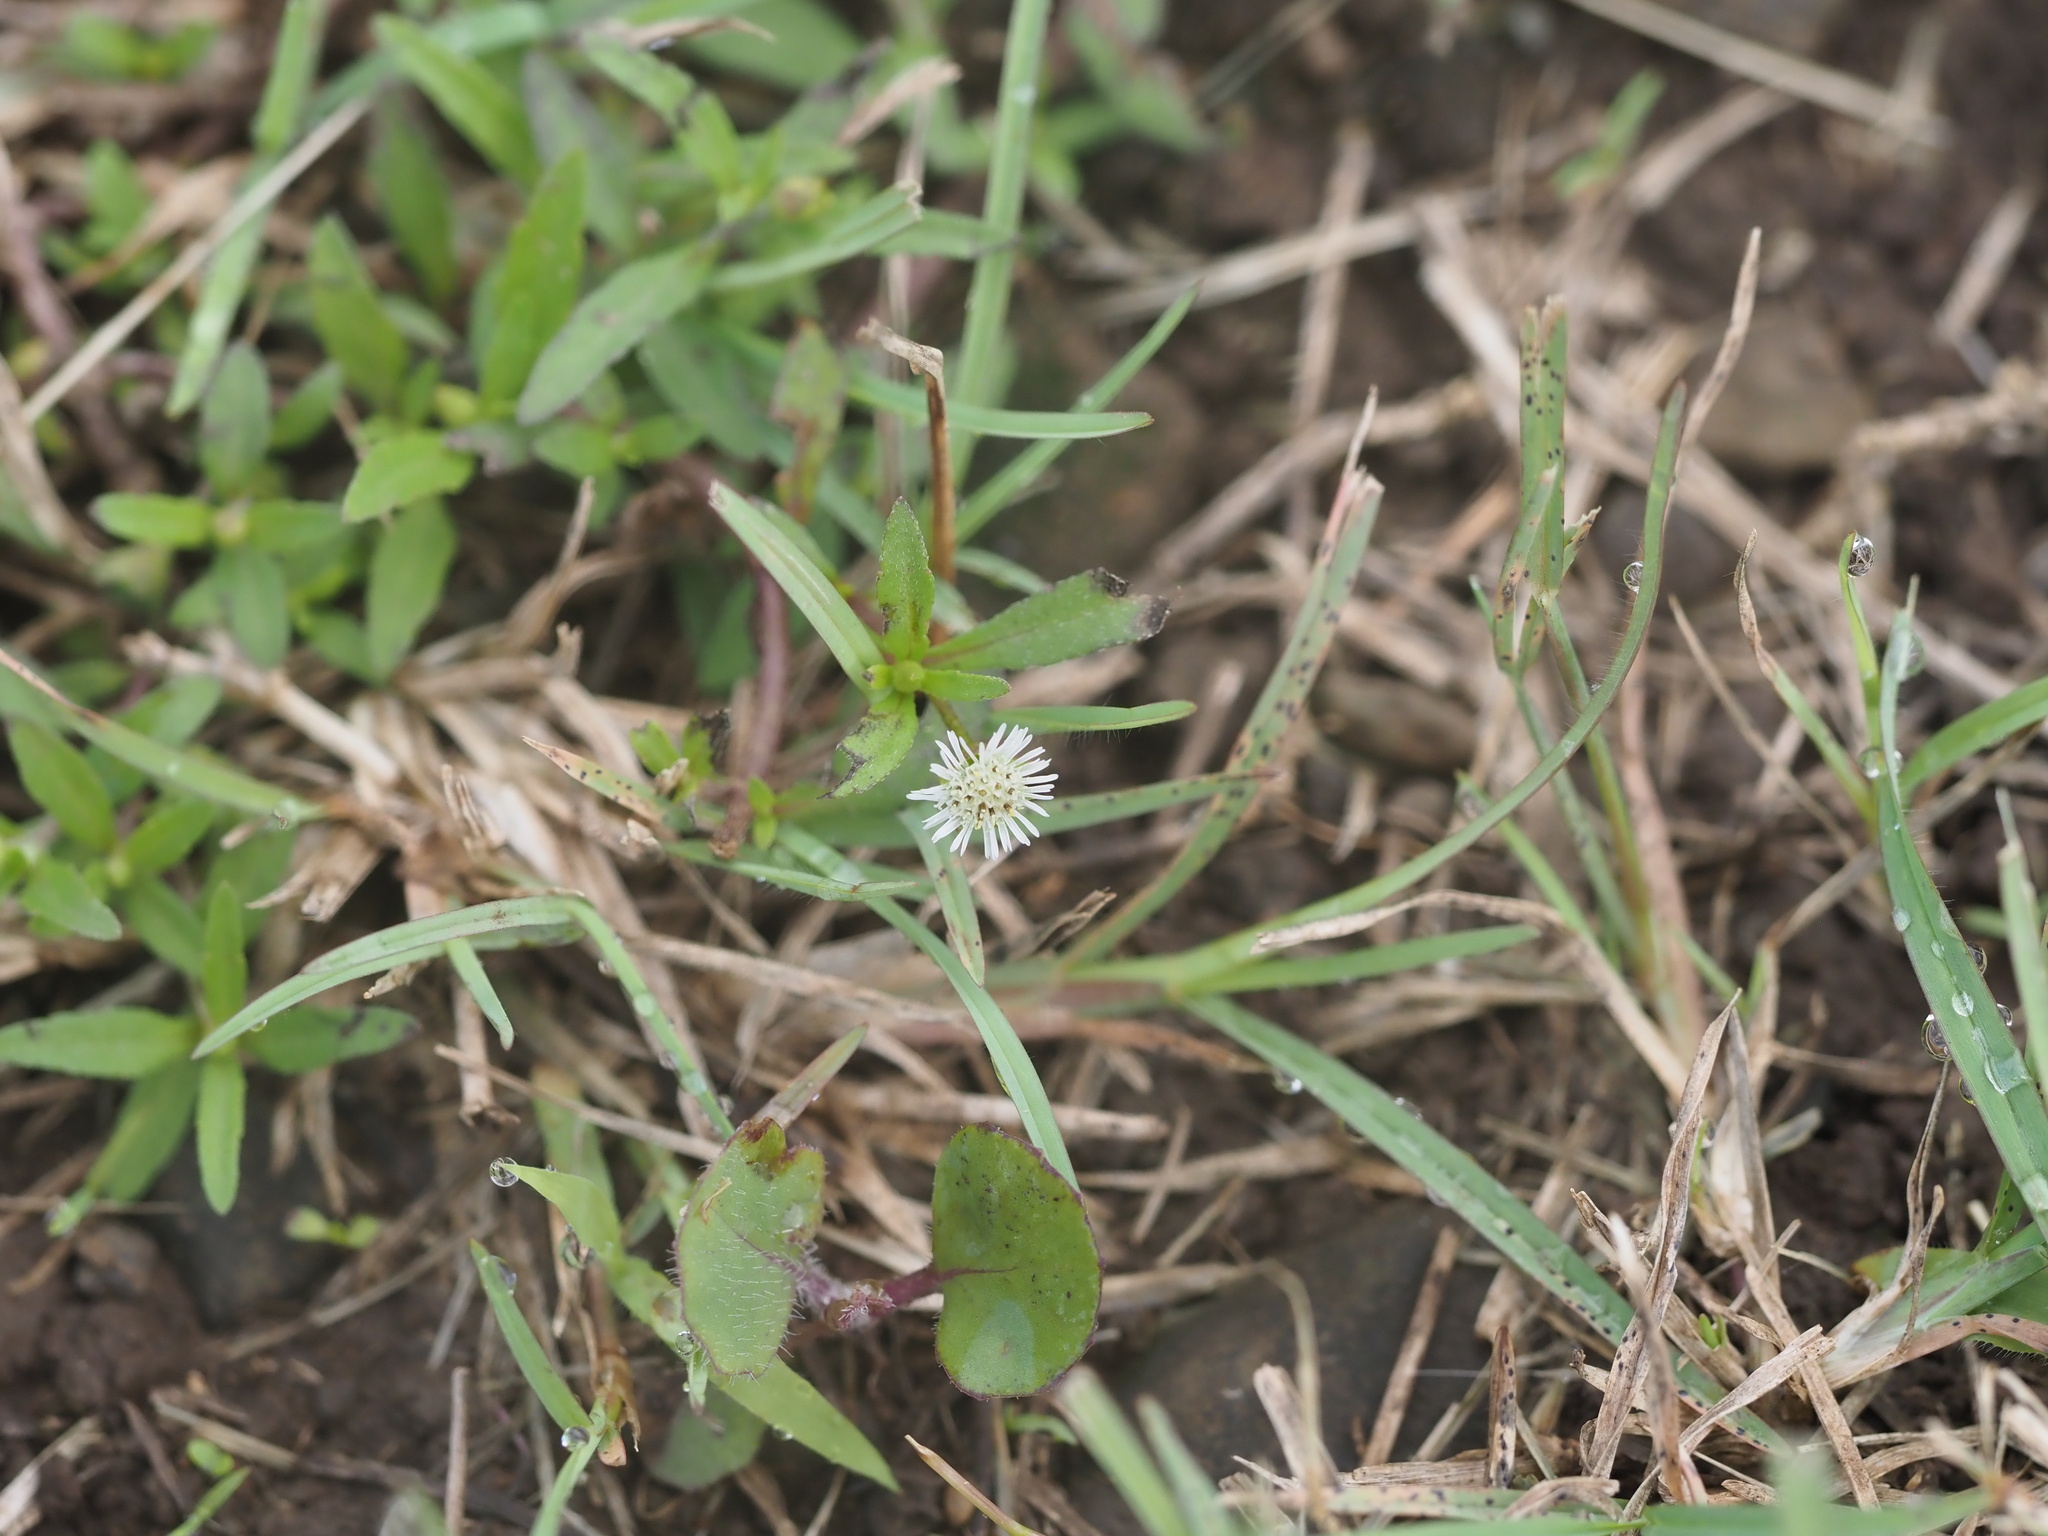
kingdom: Plantae
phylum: Tracheophyta
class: Magnoliopsida
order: Asterales
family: Asteraceae
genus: Eclipta
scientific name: Eclipta prostrata
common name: False daisy
